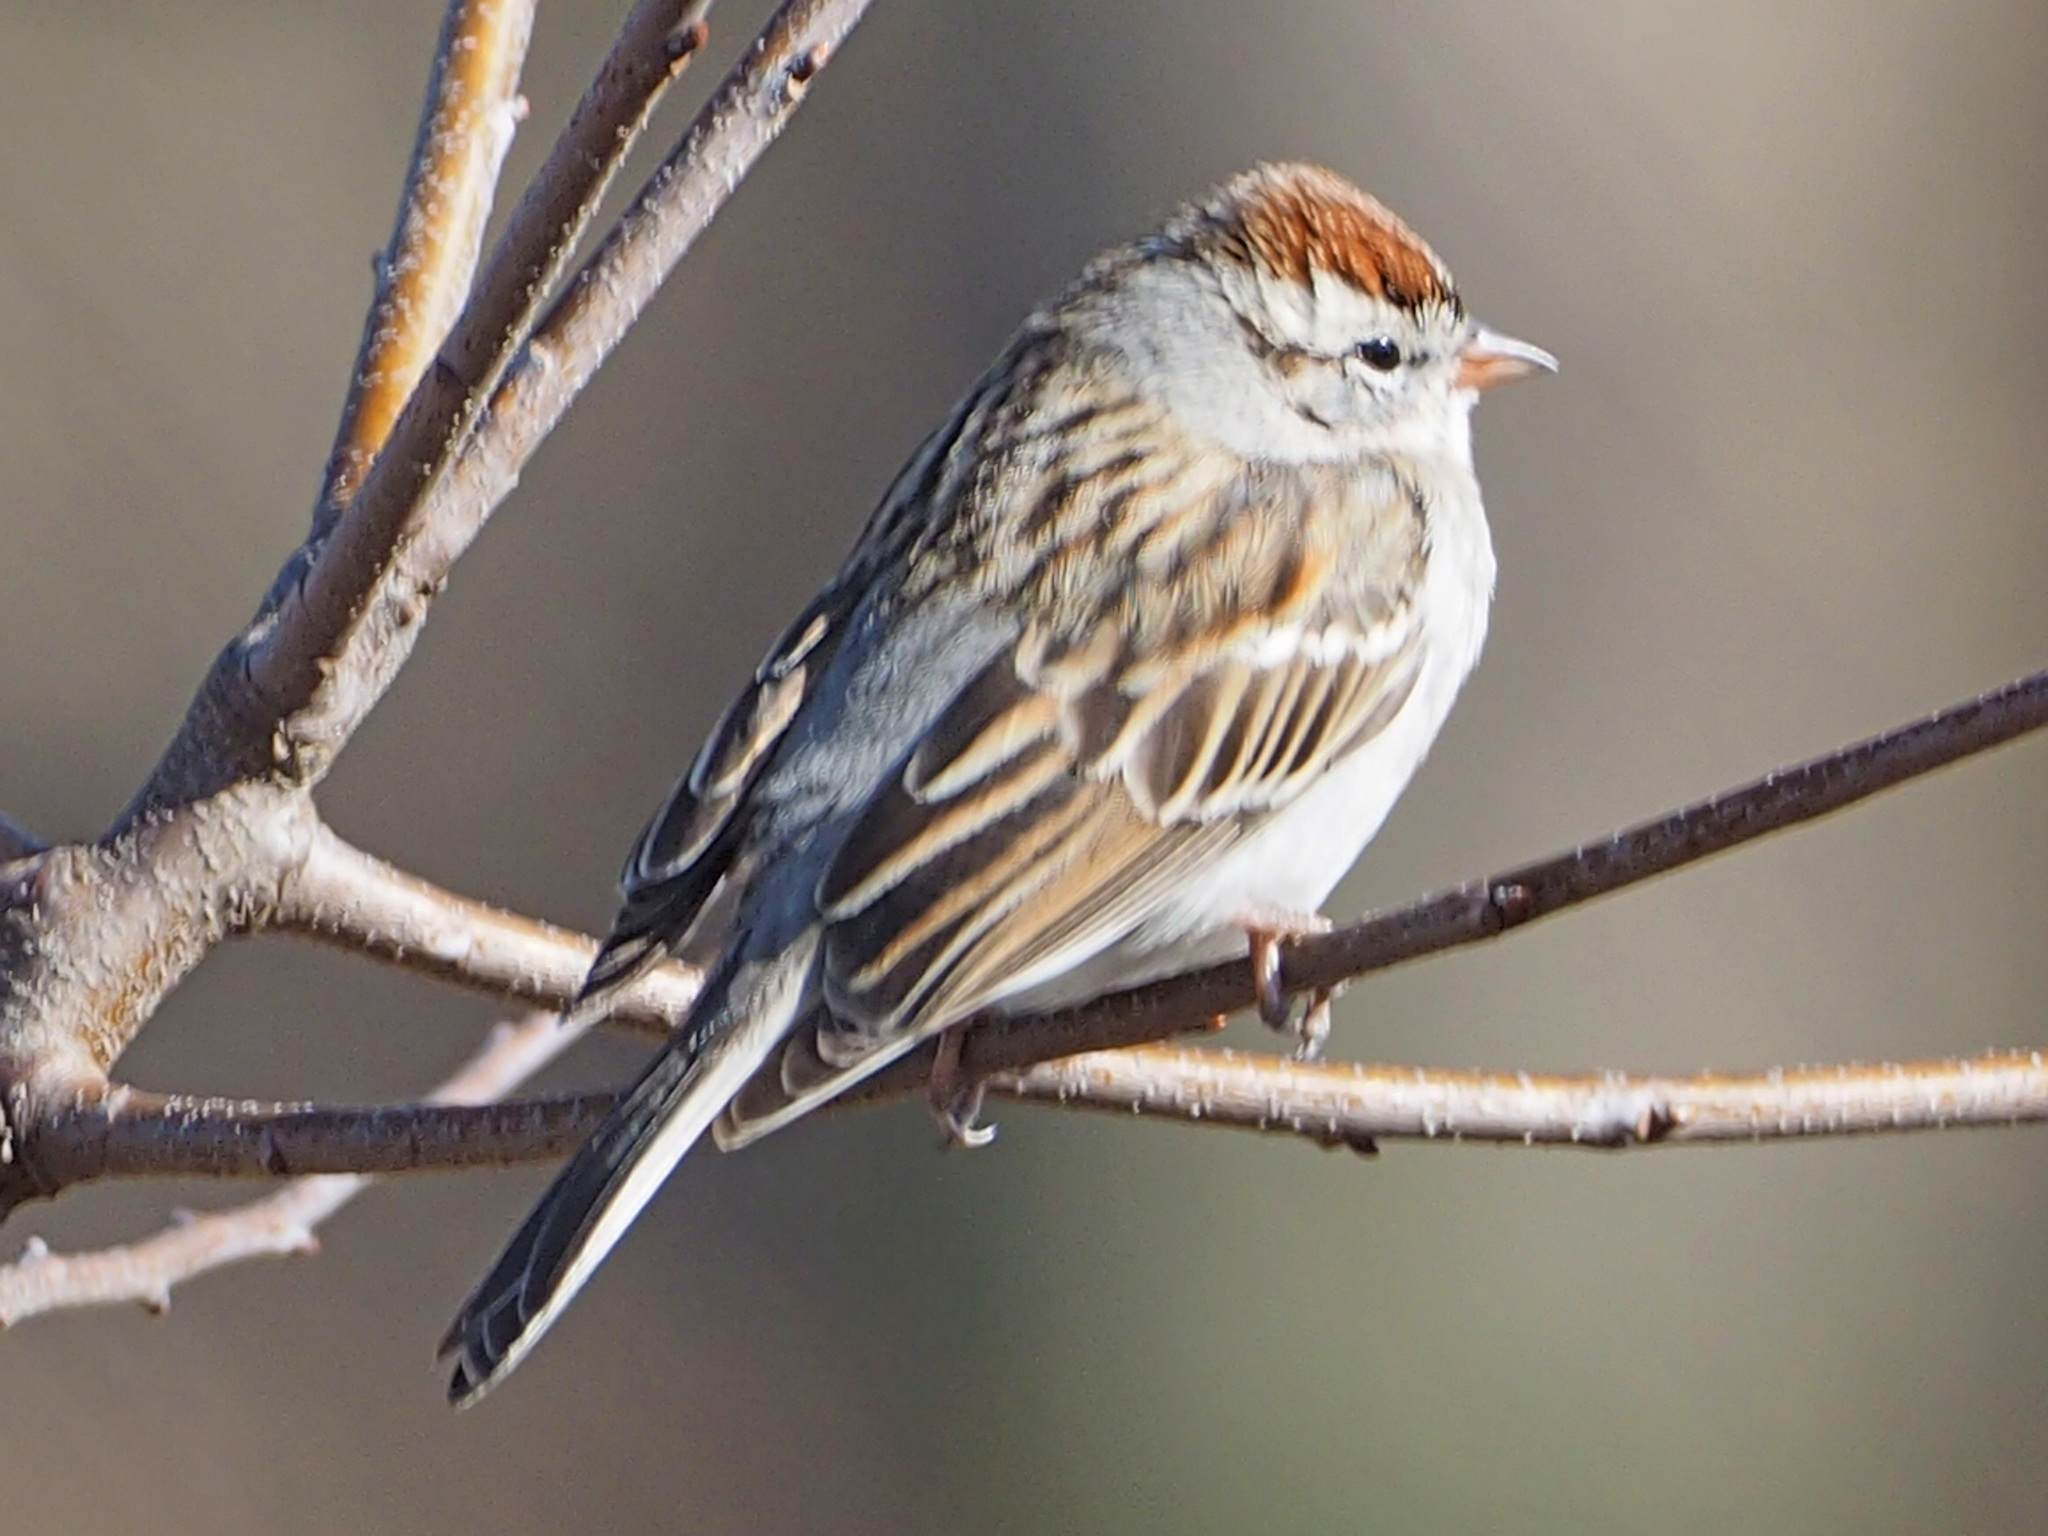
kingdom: Animalia
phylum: Chordata
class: Aves
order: Passeriformes
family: Passerellidae
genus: Spizella
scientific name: Spizella passerina
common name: Chipping sparrow
